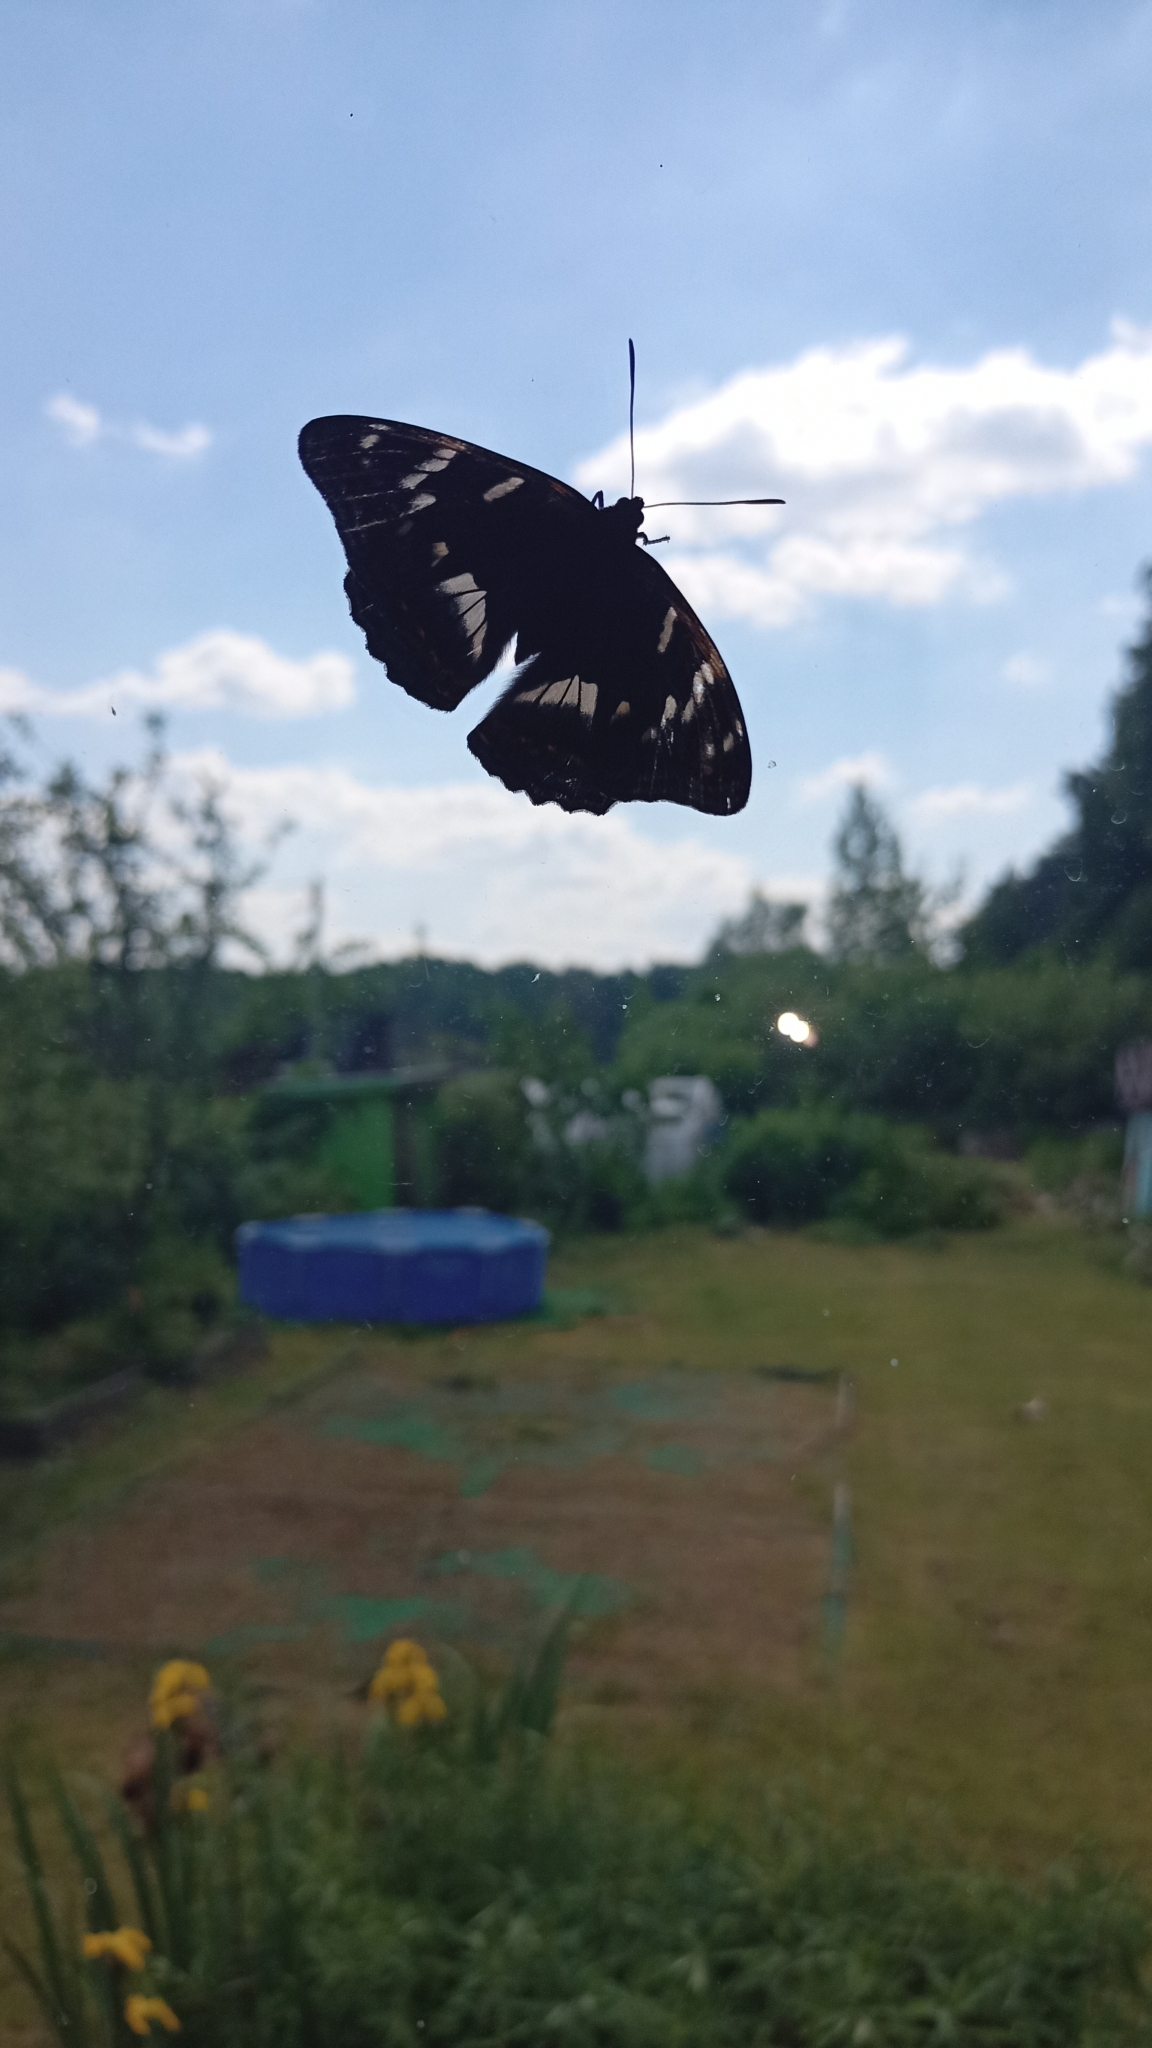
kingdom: Animalia
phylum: Arthropoda
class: Insecta
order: Lepidoptera
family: Nymphalidae
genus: Apatura
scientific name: Apatura ilia
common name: Lesser purple emperor
